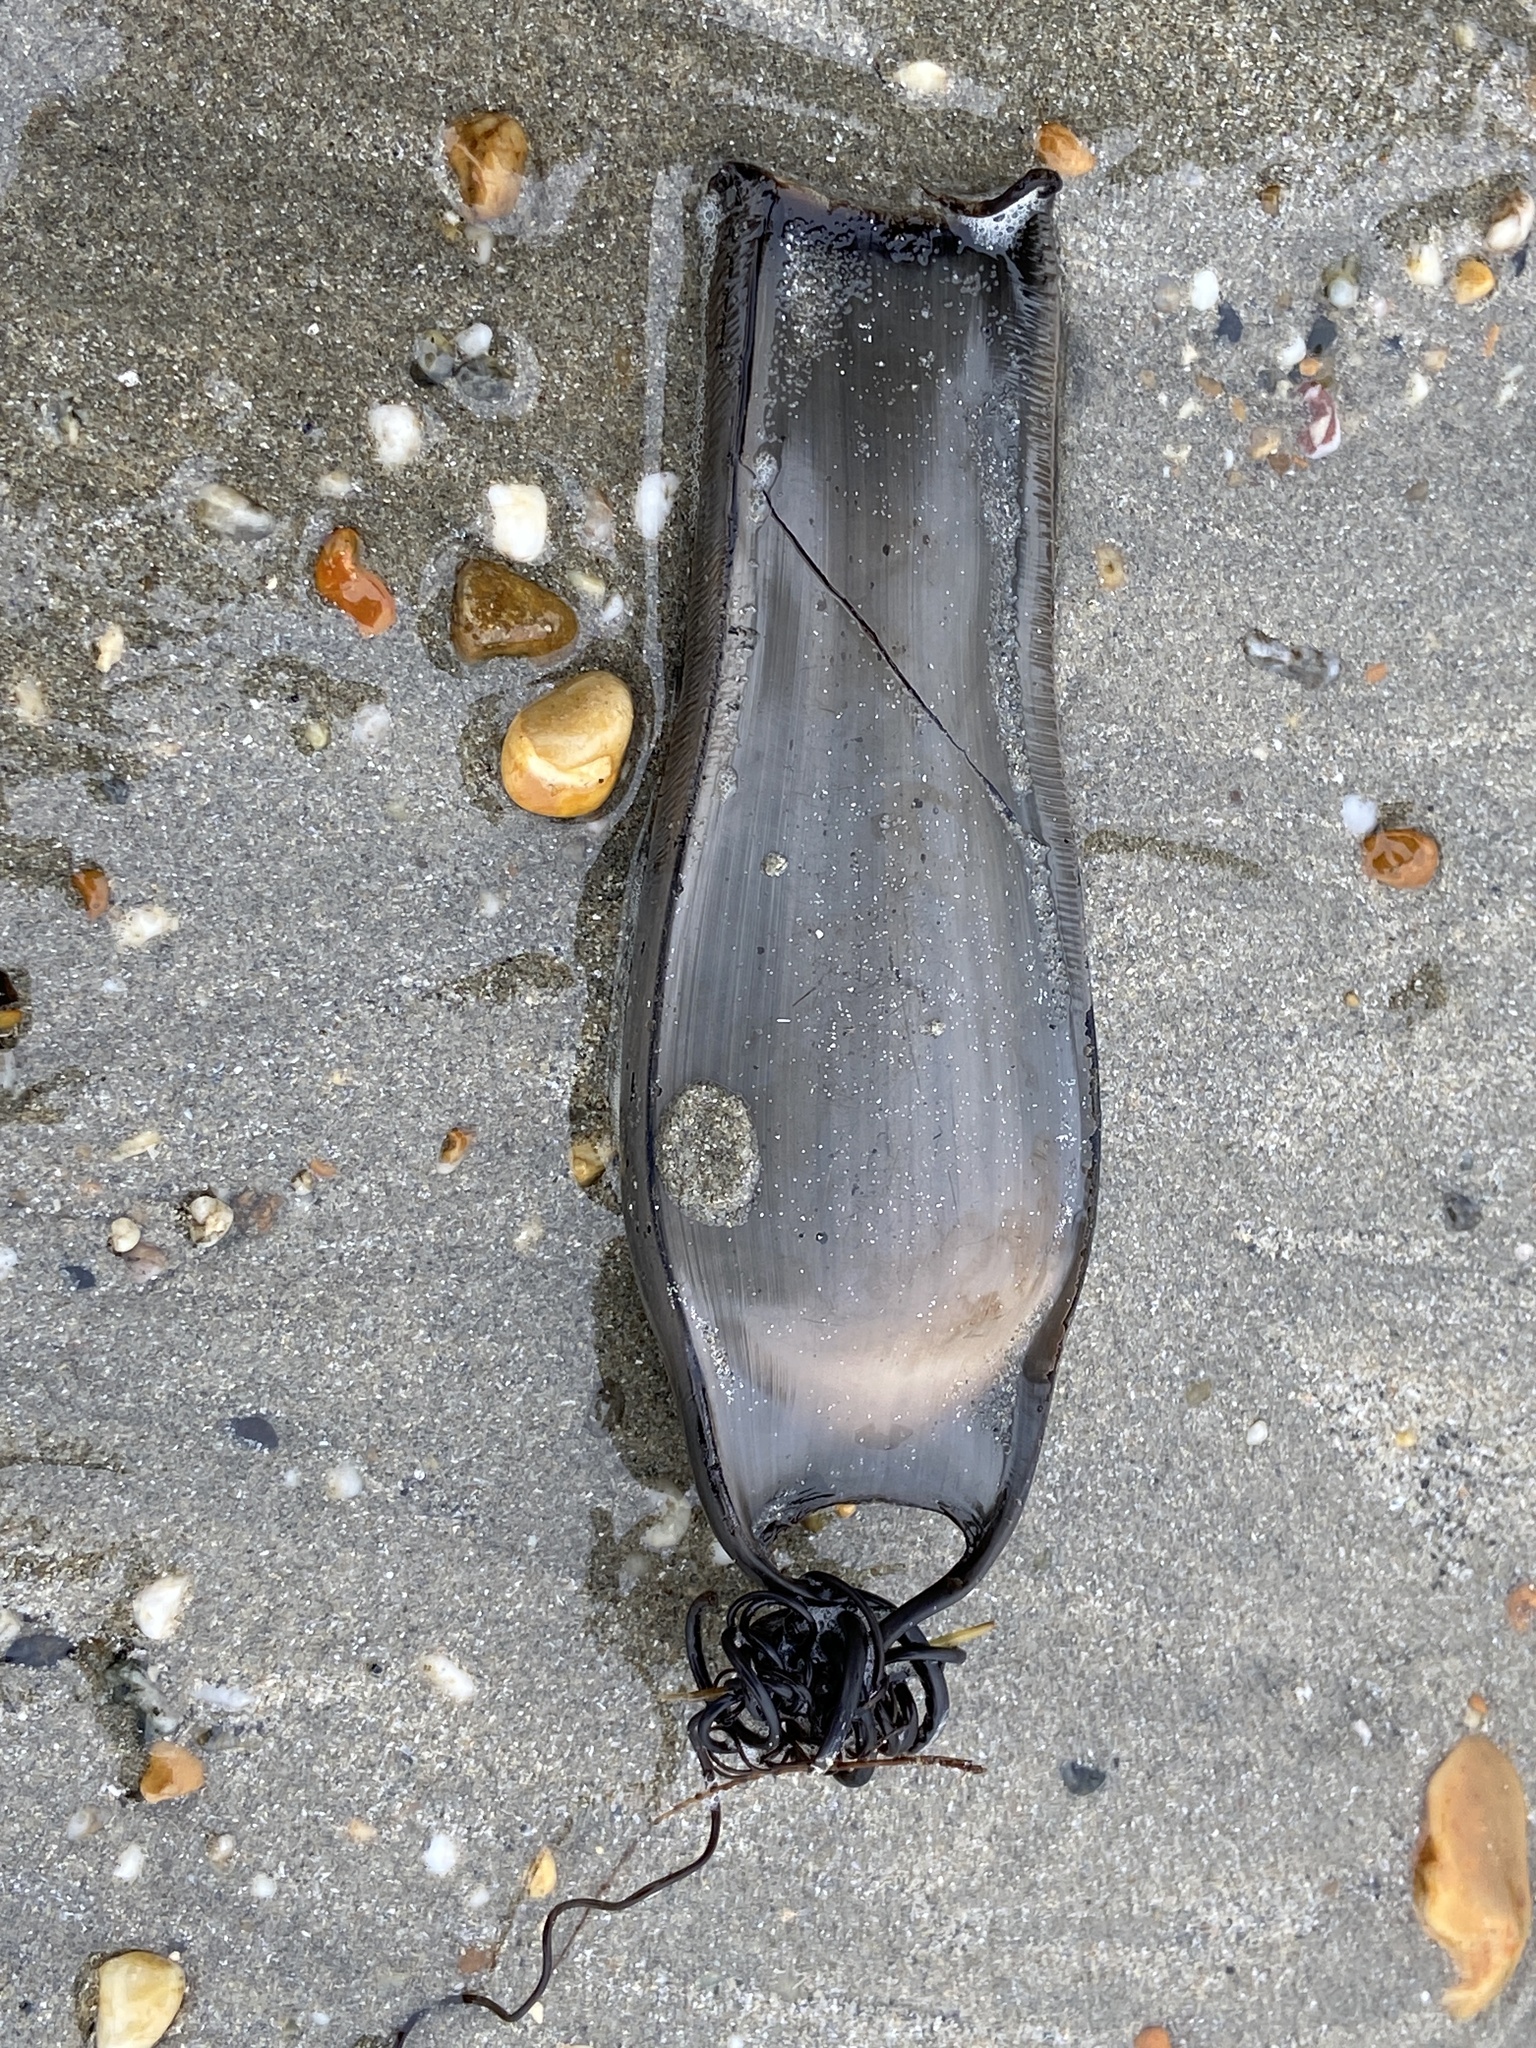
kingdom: Animalia
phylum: Chordata
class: Elasmobranchii
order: Carcharhiniformes
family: Scyliorhinidae
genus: Scyliorhinus
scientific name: Scyliorhinus stellaris
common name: Nursehound
